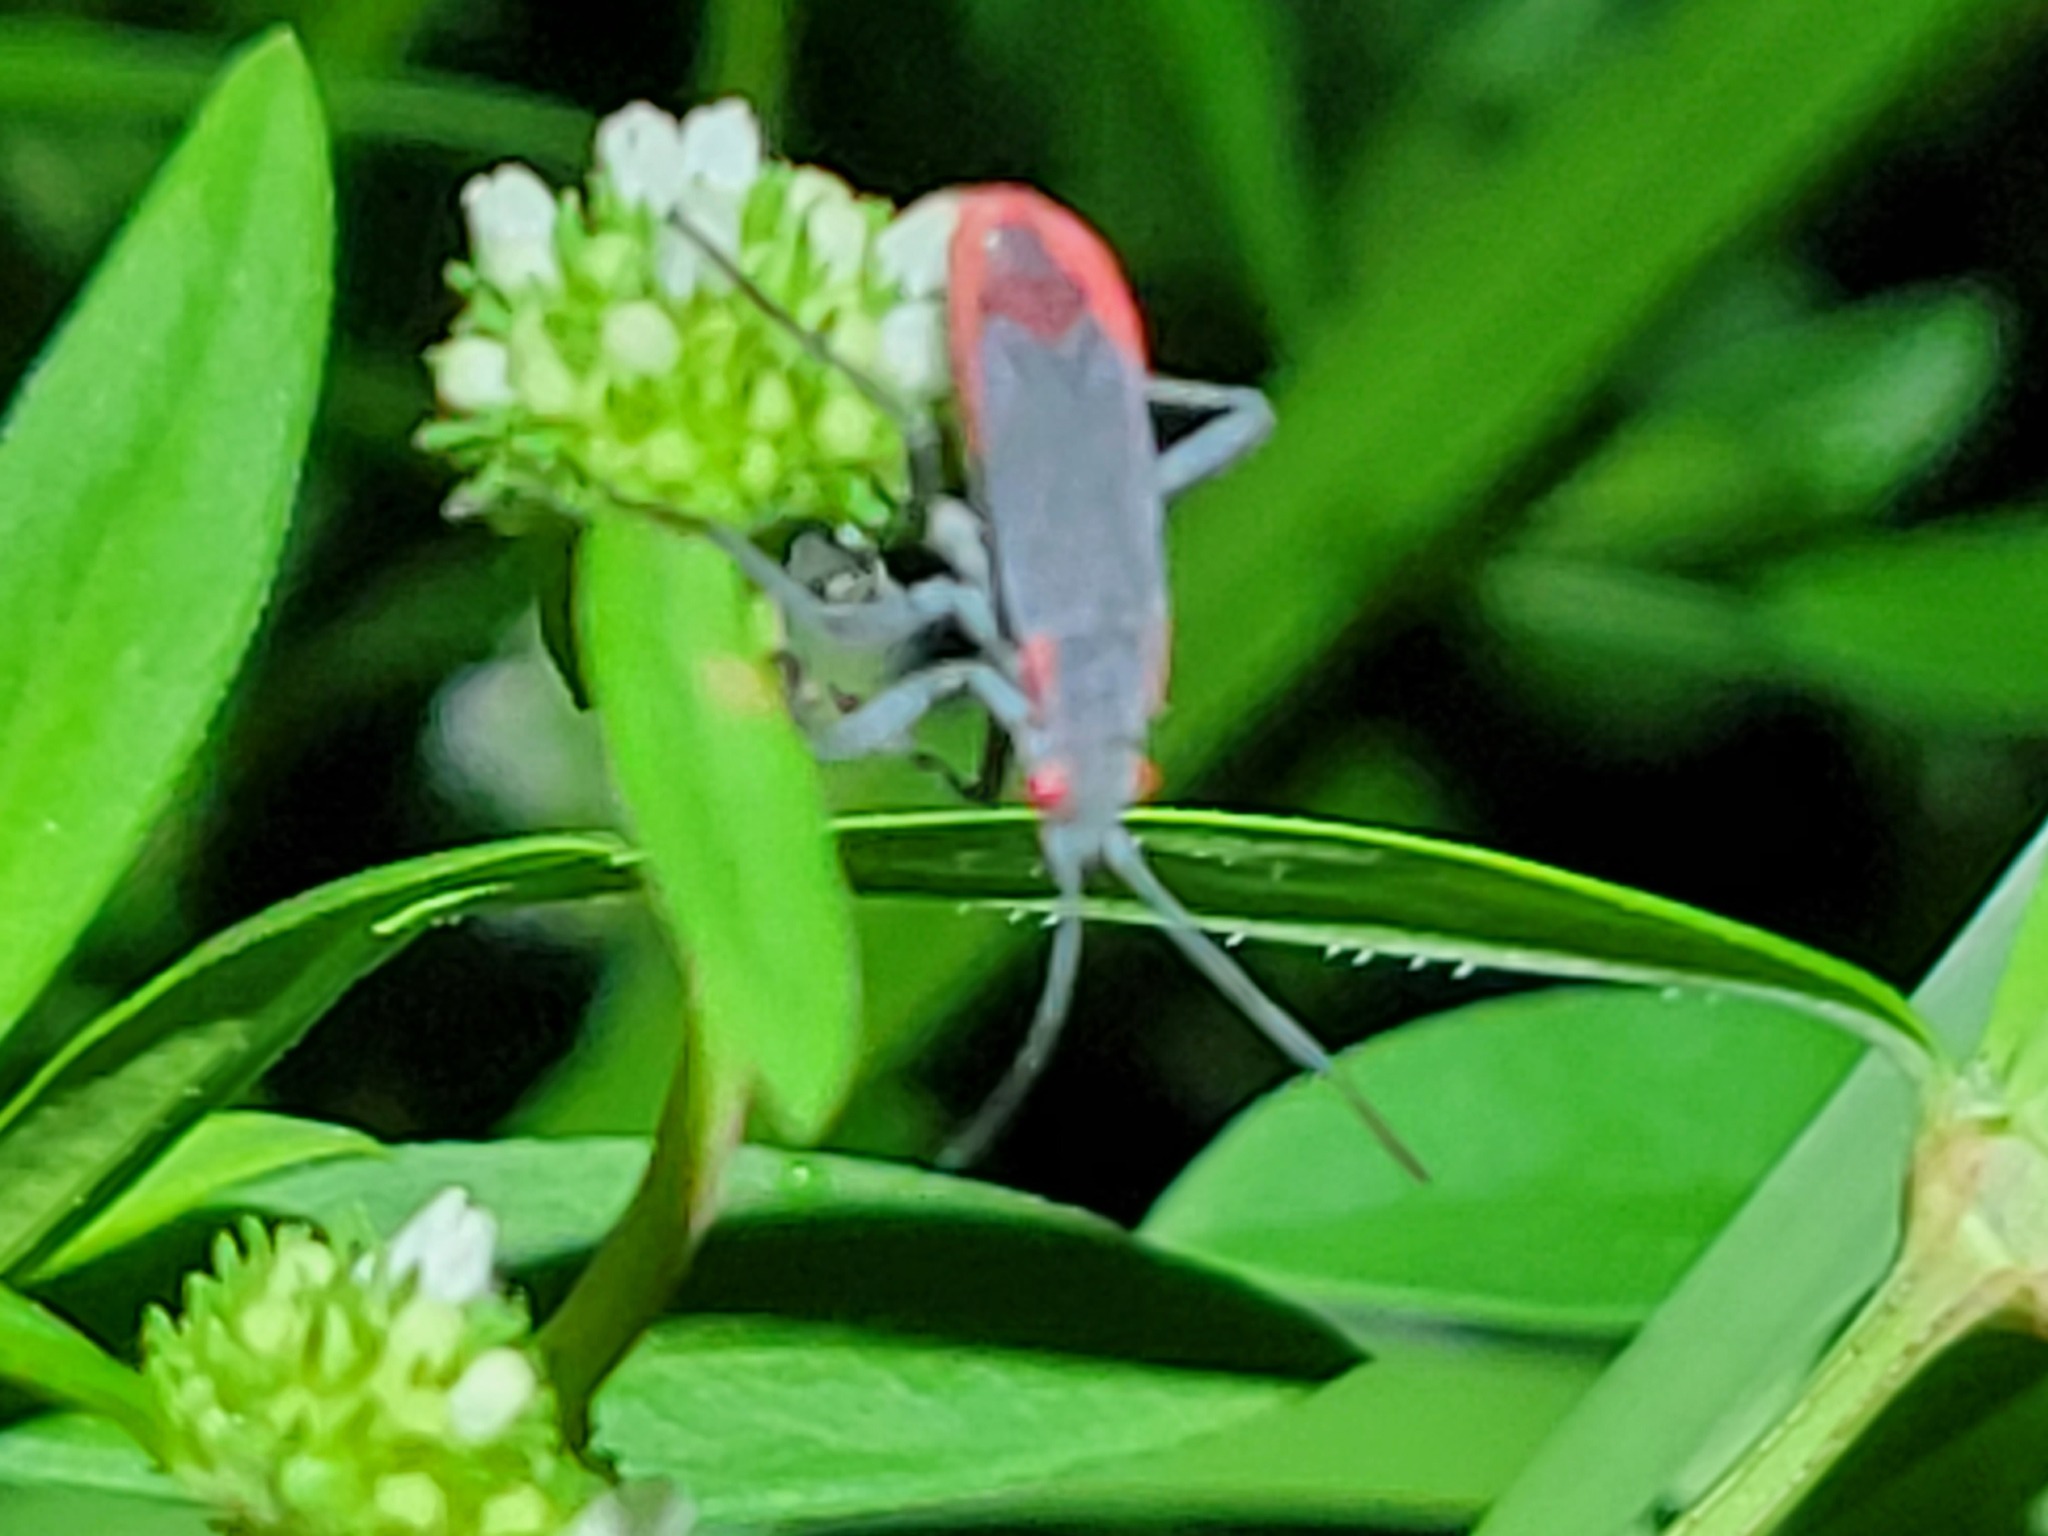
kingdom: Animalia
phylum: Arthropoda
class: Insecta
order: Hemiptera
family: Rhopalidae
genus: Jadera
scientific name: Jadera haematoloma
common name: Red-shouldered bug
